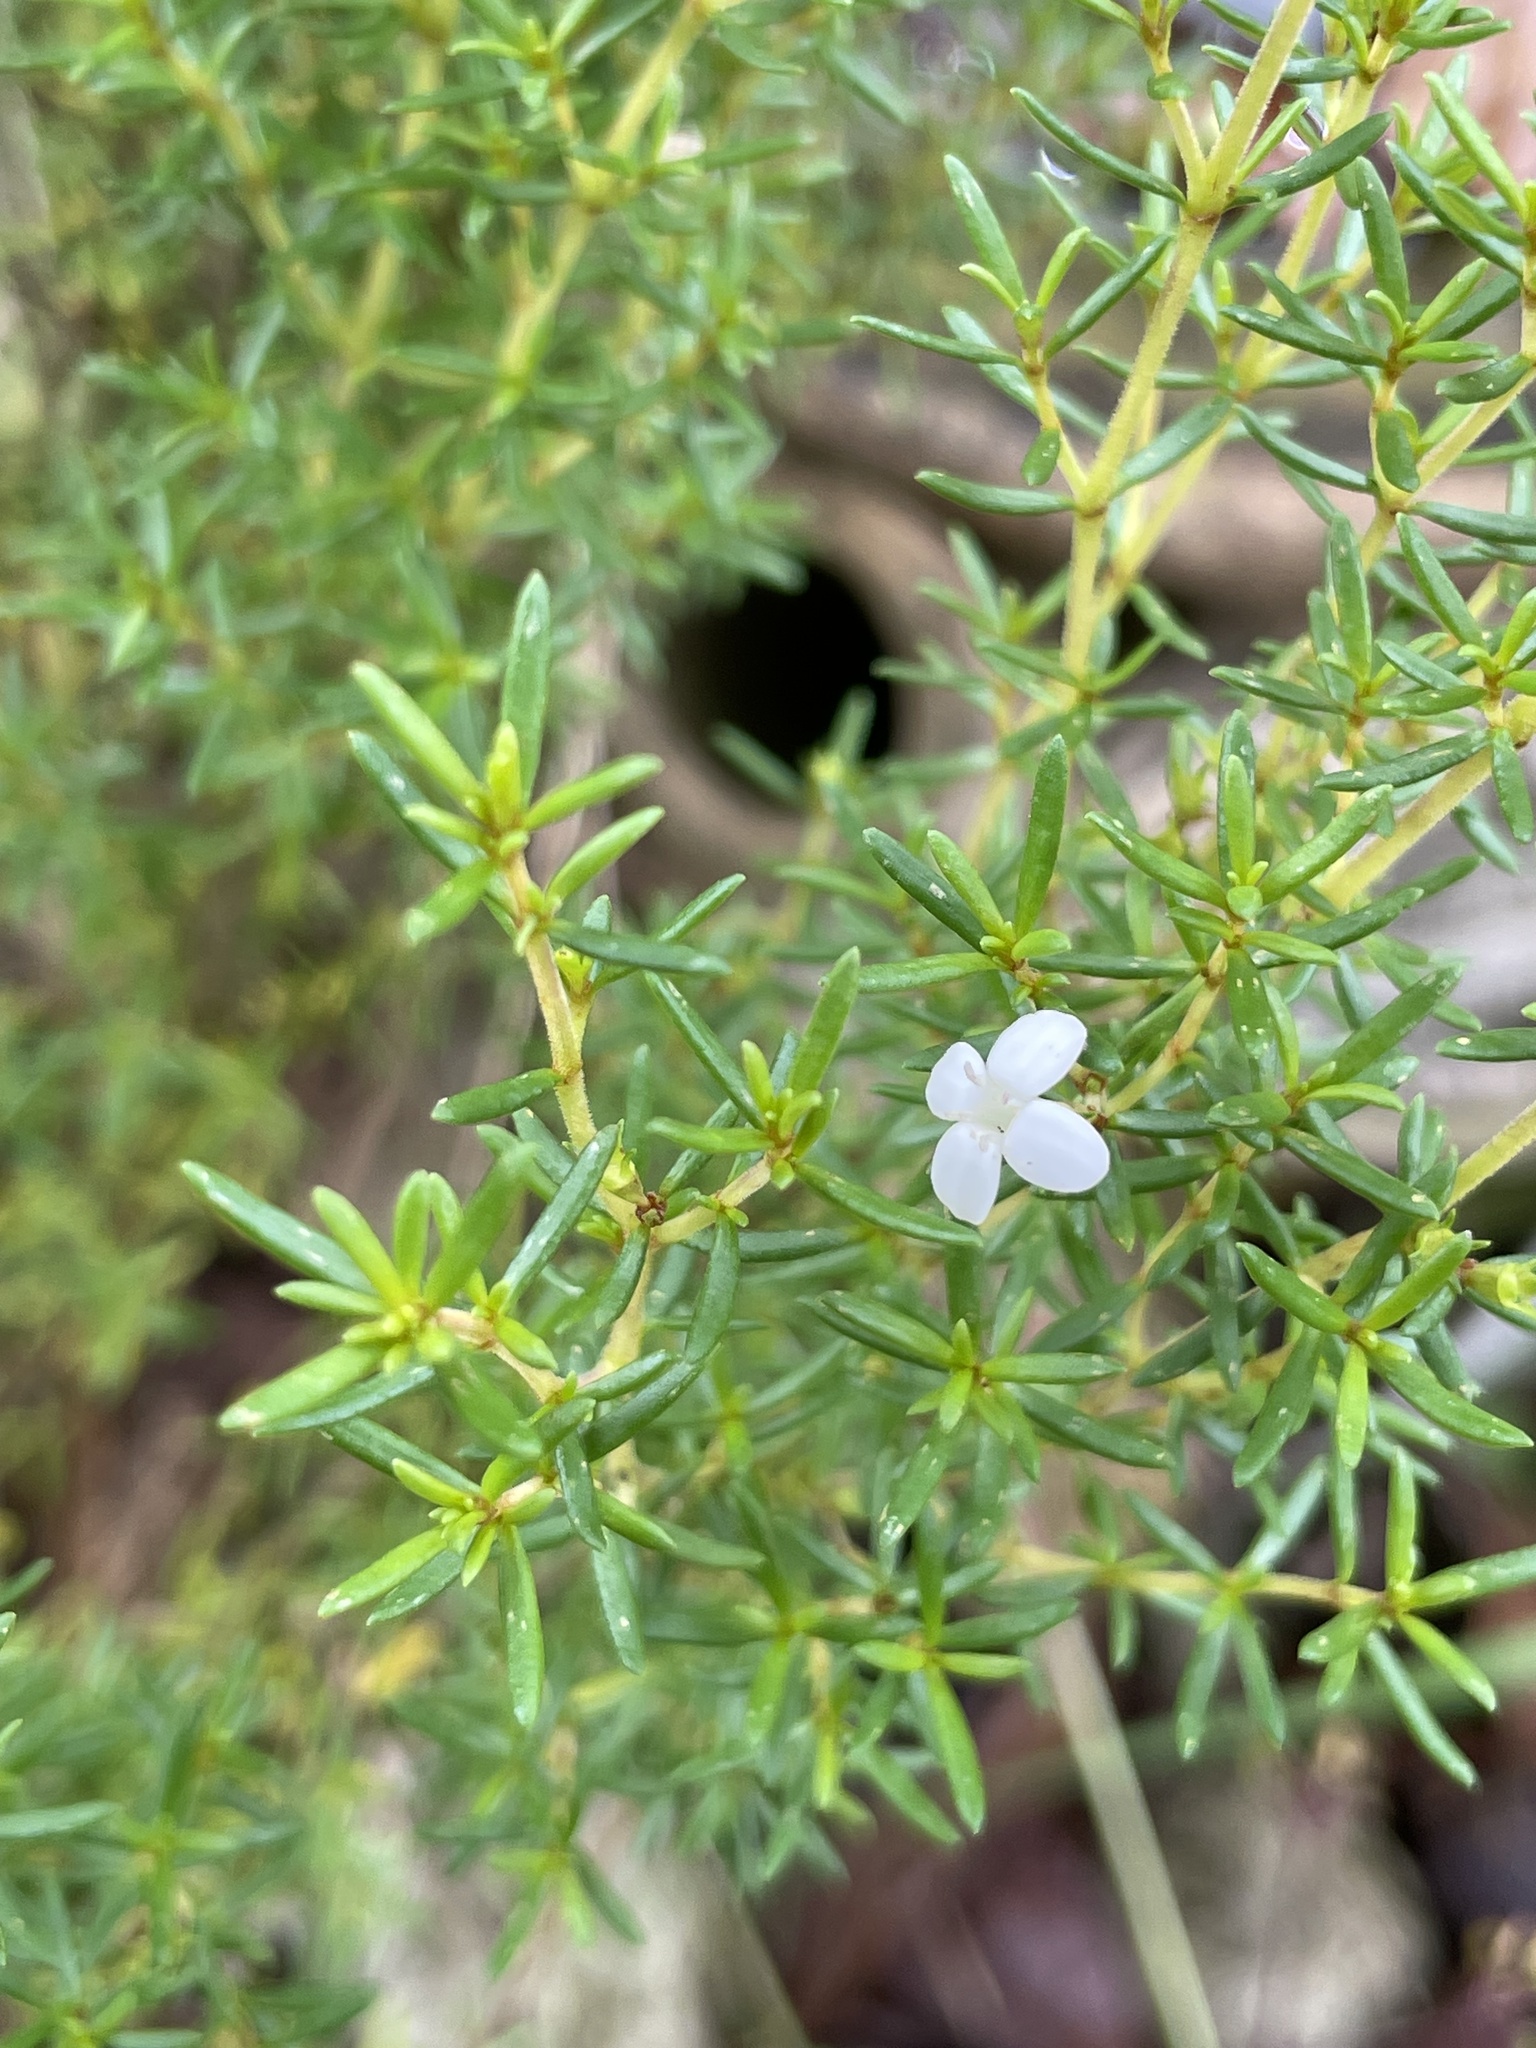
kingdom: Plantae
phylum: Tracheophyta
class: Magnoliopsida
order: Gentianales
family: Rubiaceae
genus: Arcytophyllum
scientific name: Arcytophyllum thymifolium
